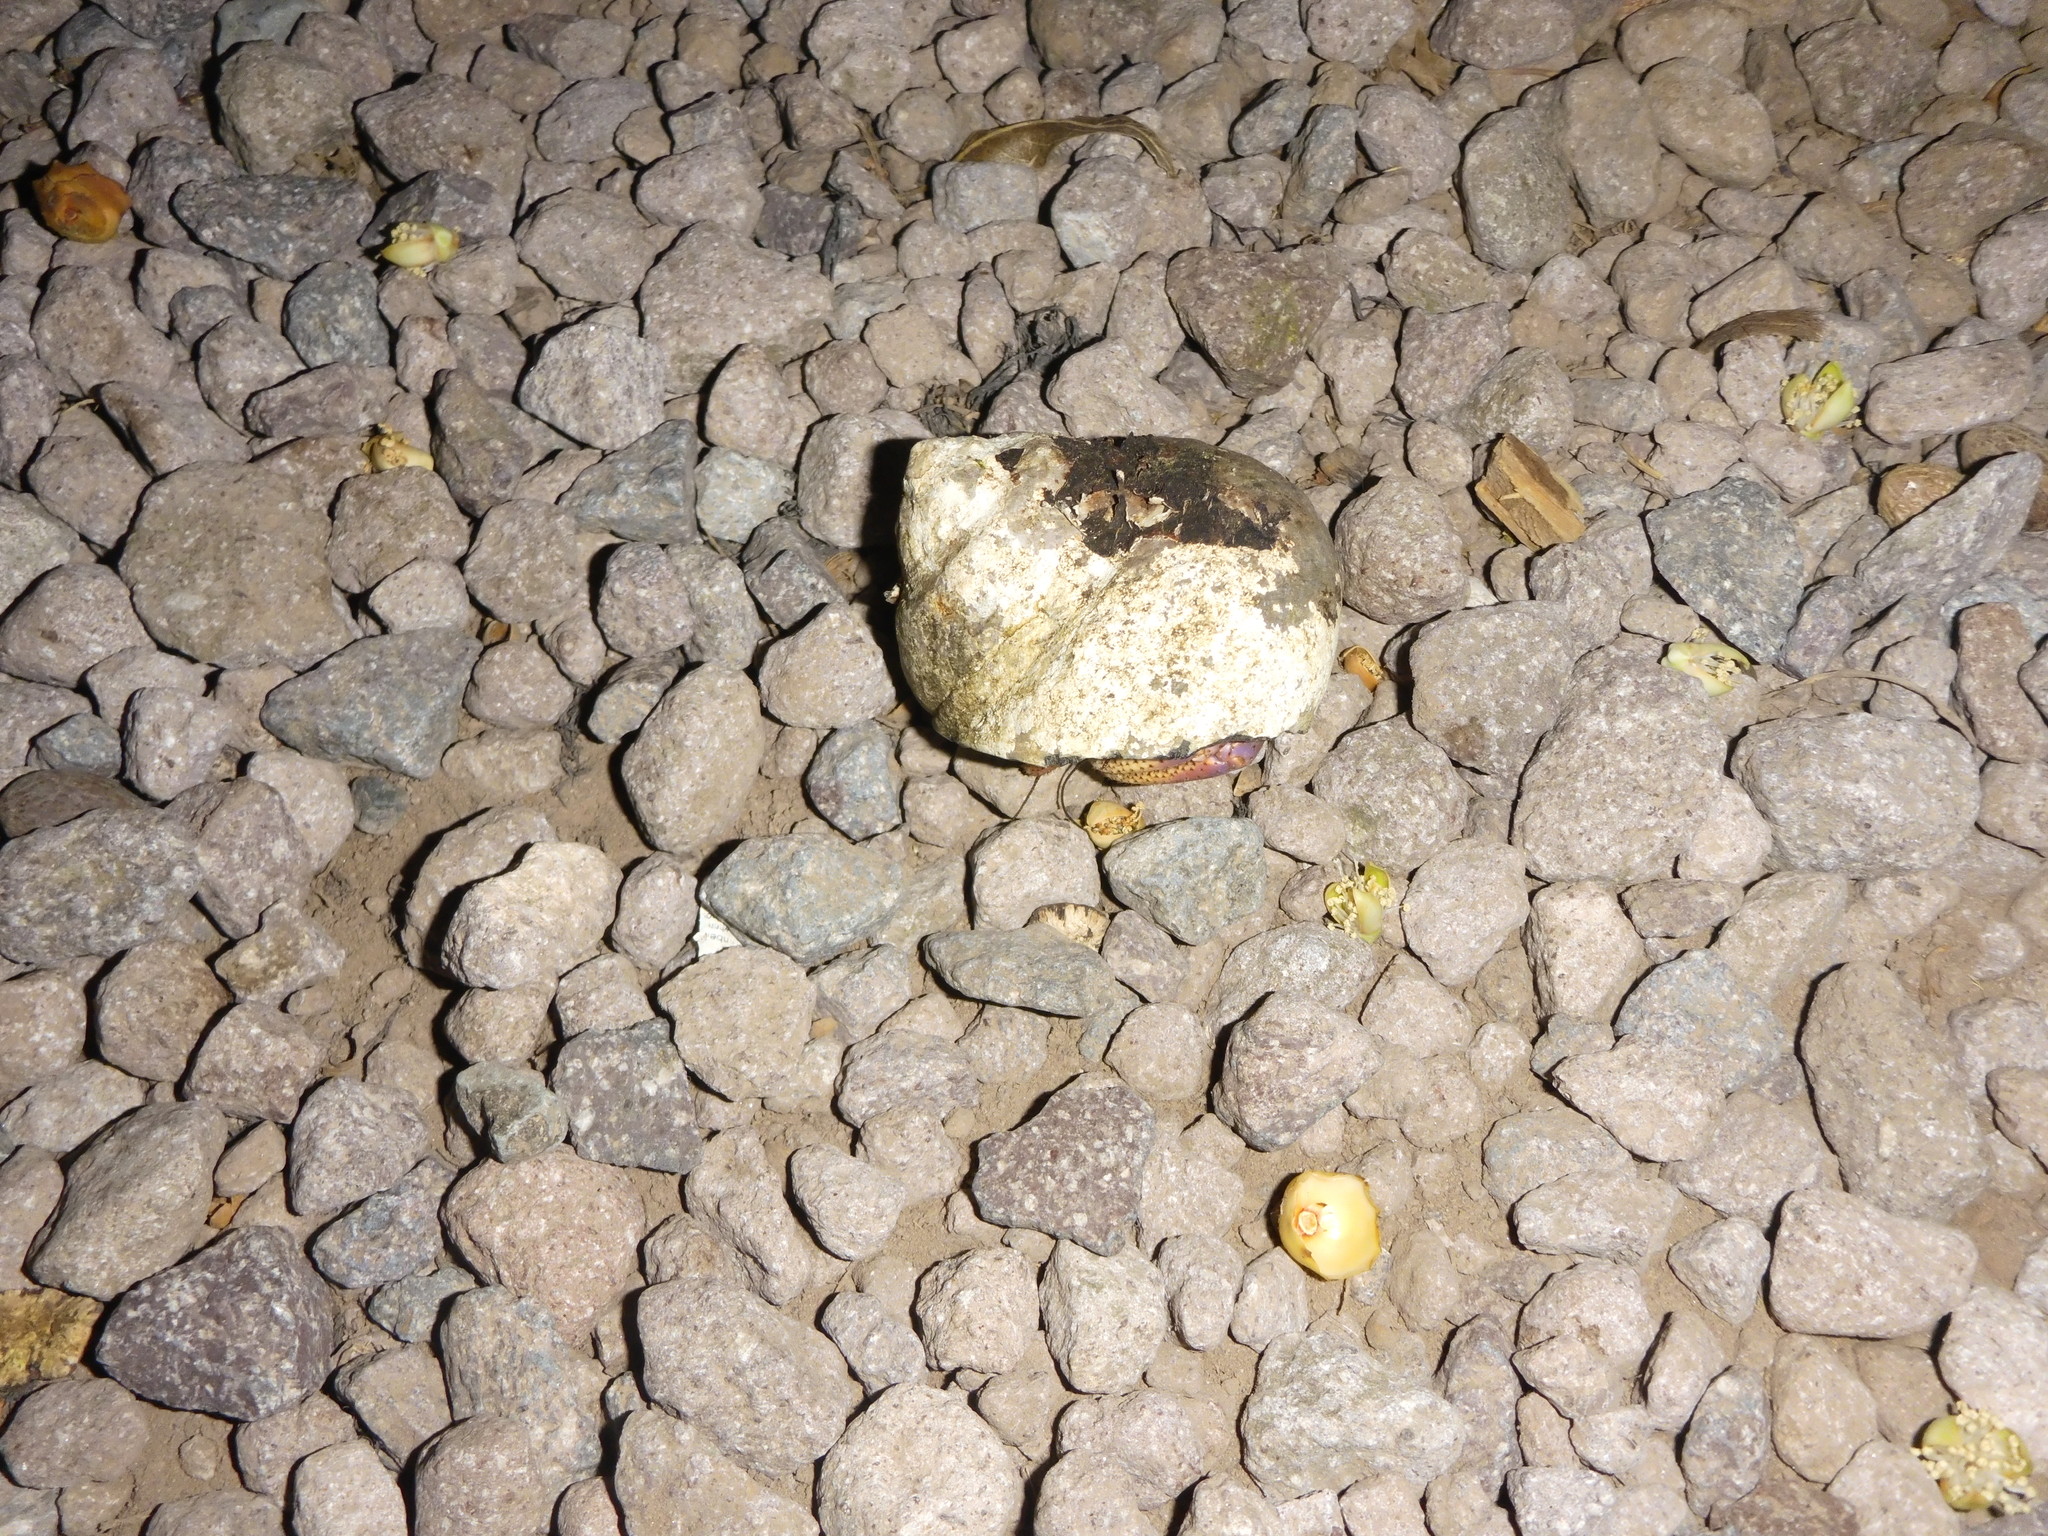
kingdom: Animalia
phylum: Arthropoda
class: Malacostraca
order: Decapoda
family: Coenobitidae
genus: Coenobita
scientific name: Coenobita clypeatus
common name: Caribbean hermit crab
